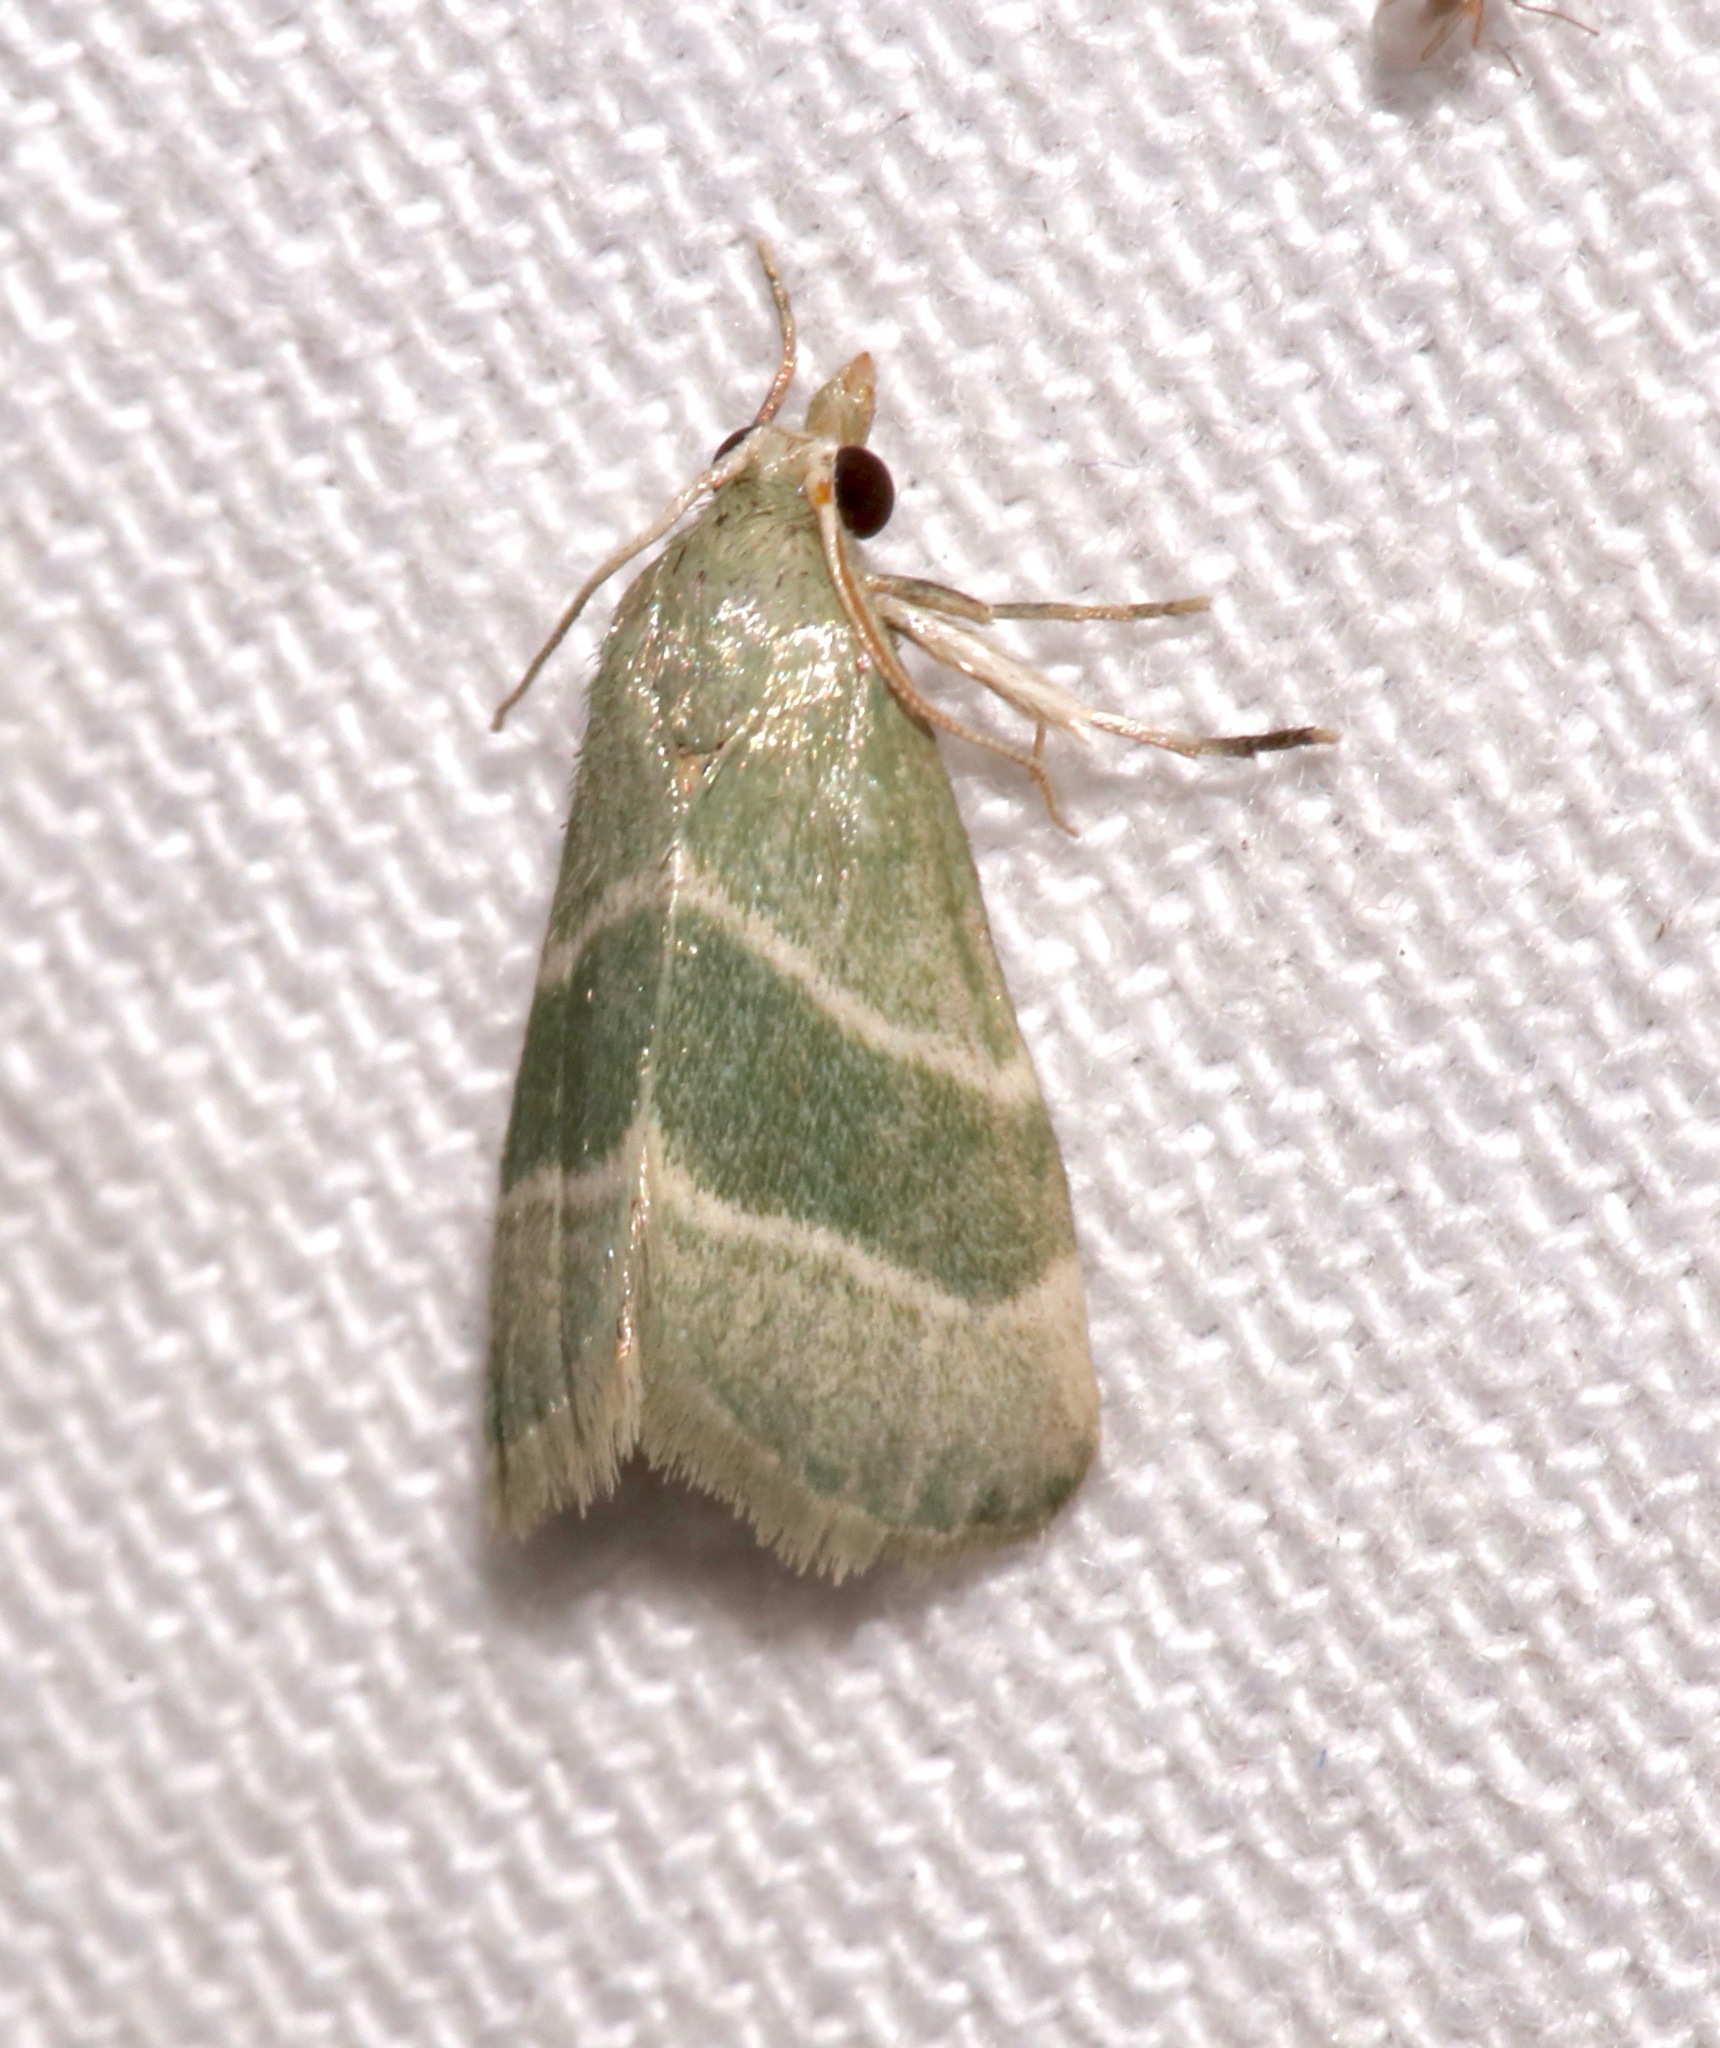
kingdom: Animalia
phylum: Arthropoda
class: Insecta
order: Lepidoptera
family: Pyralidae
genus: Anemosella
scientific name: Anemosella viridalis
